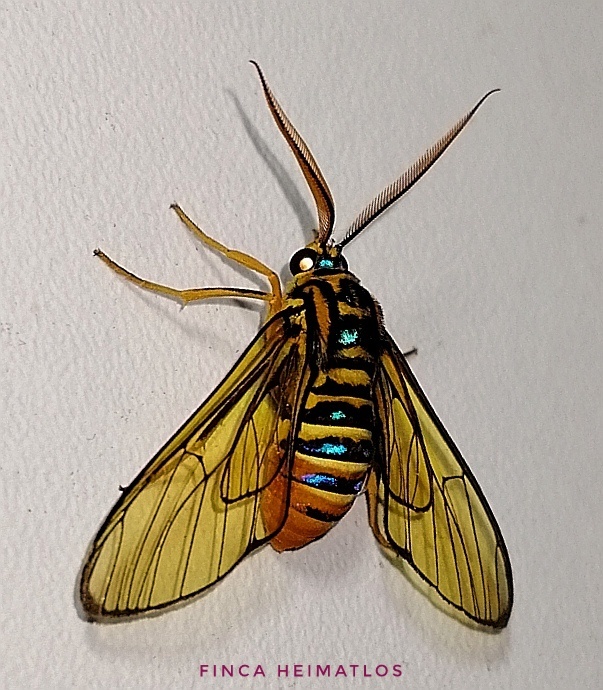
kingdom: Animalia
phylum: Arthropoda
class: Insecta
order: Lepidoptera
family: Erebidae
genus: Gymnelia
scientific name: Gymnelia villia
